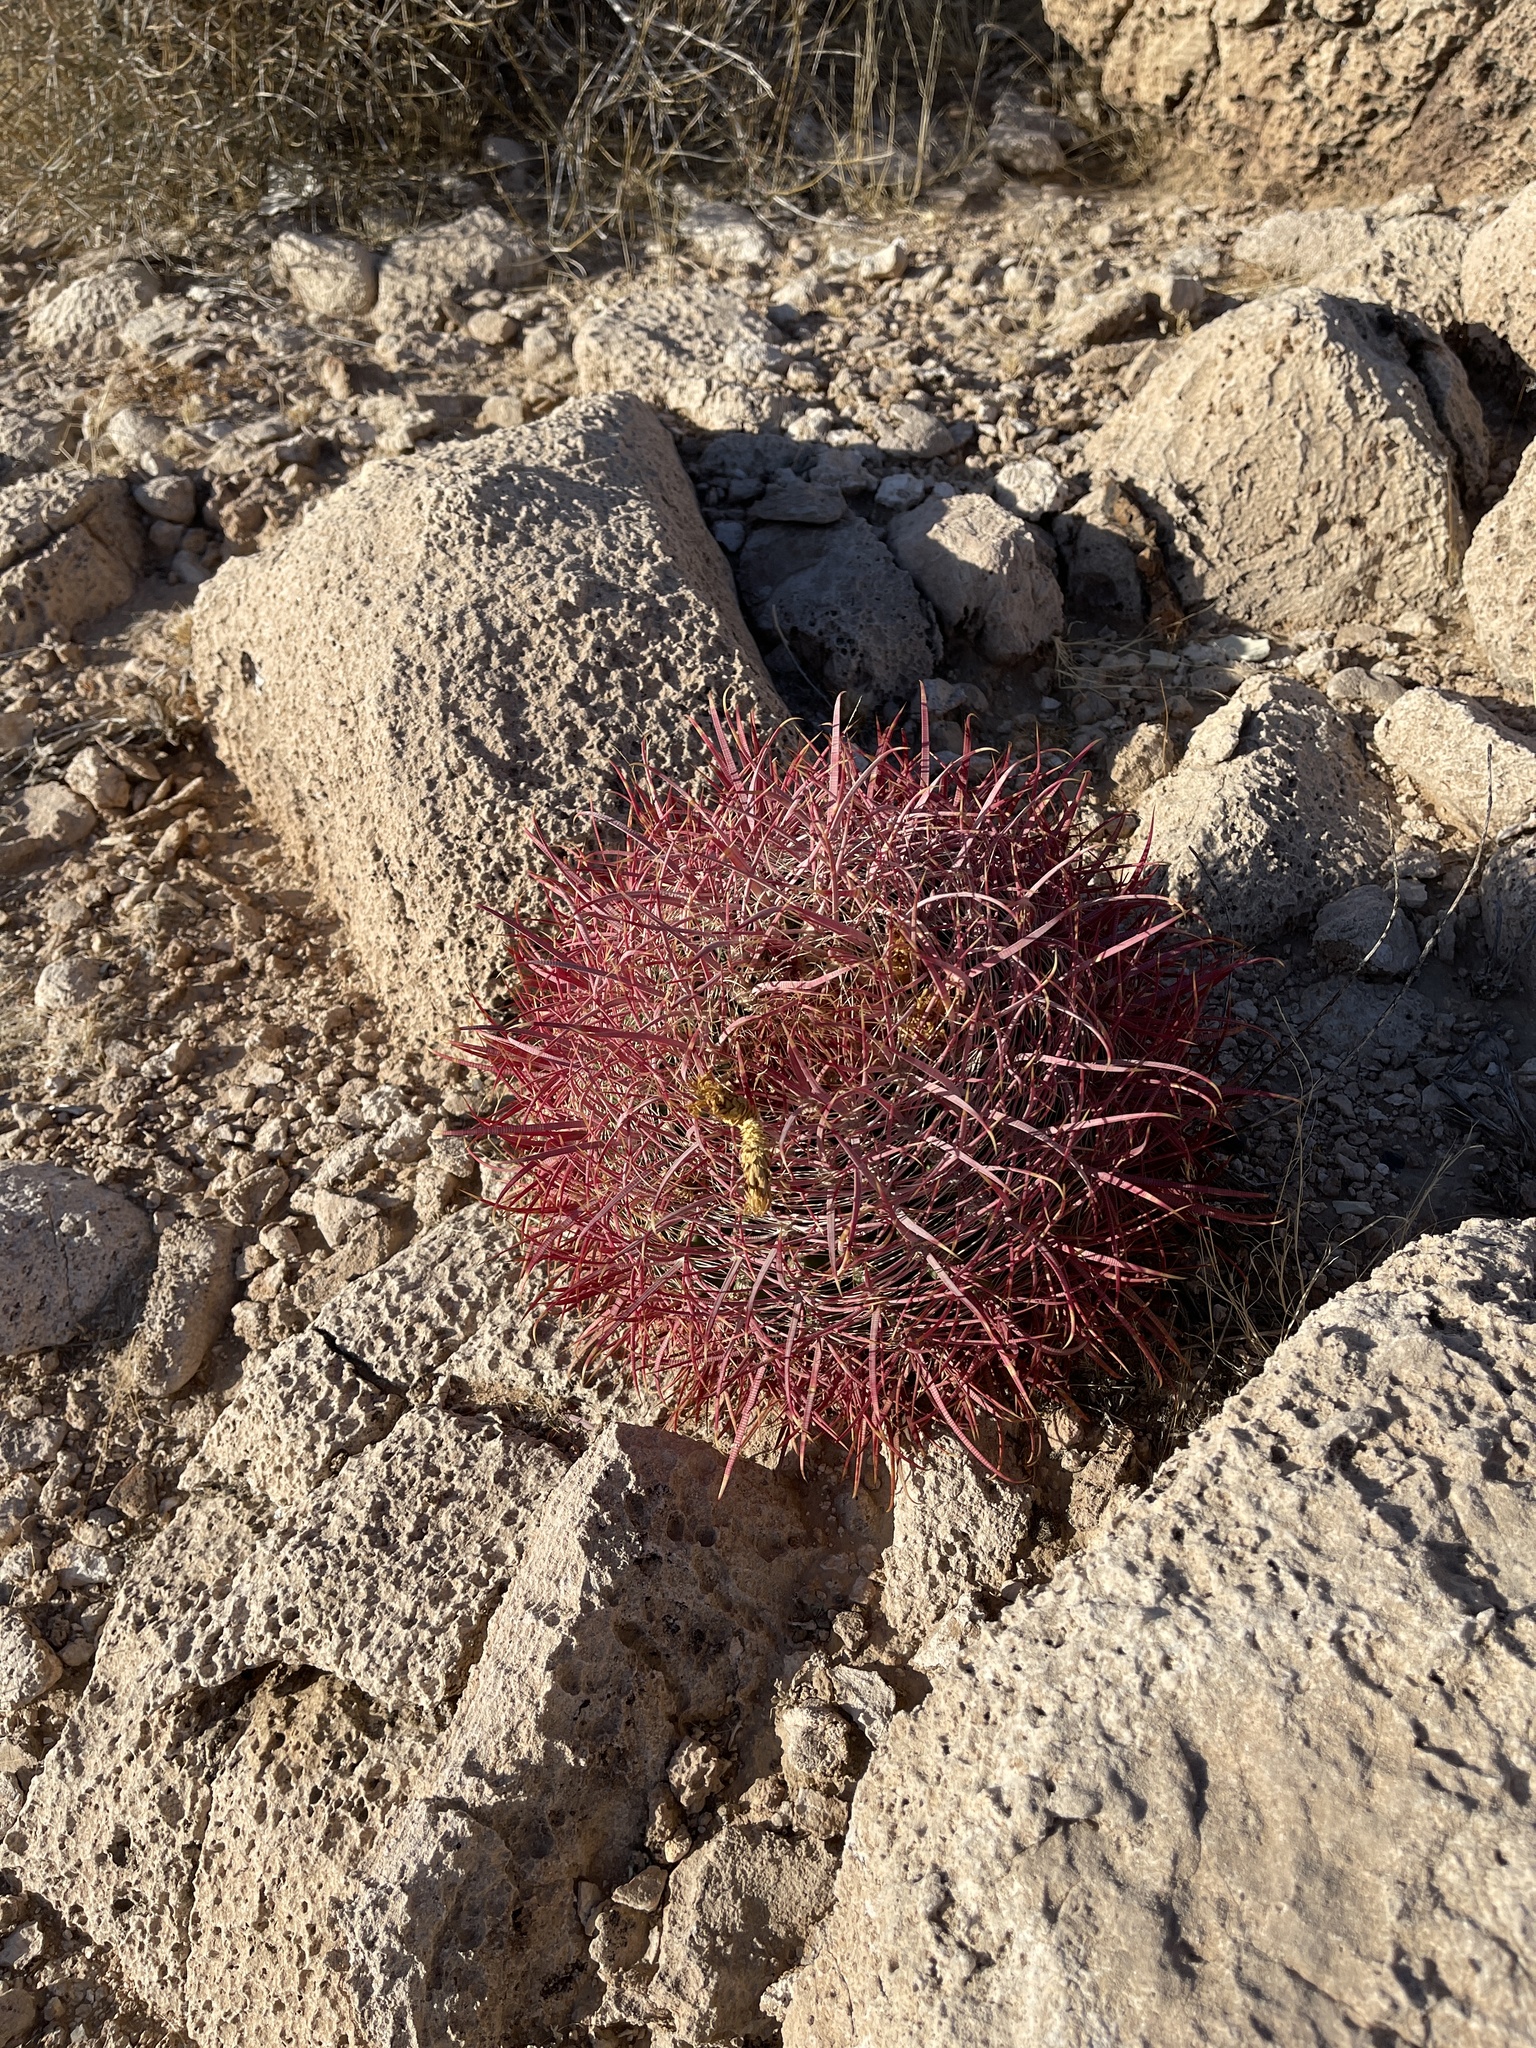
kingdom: Plantae
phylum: Tracheophyta
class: Magnoliopsida
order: Caryophyllales
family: Cactaceae
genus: Ferocactus
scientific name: Ferocactus cylindraceus
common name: California barrel cactus
